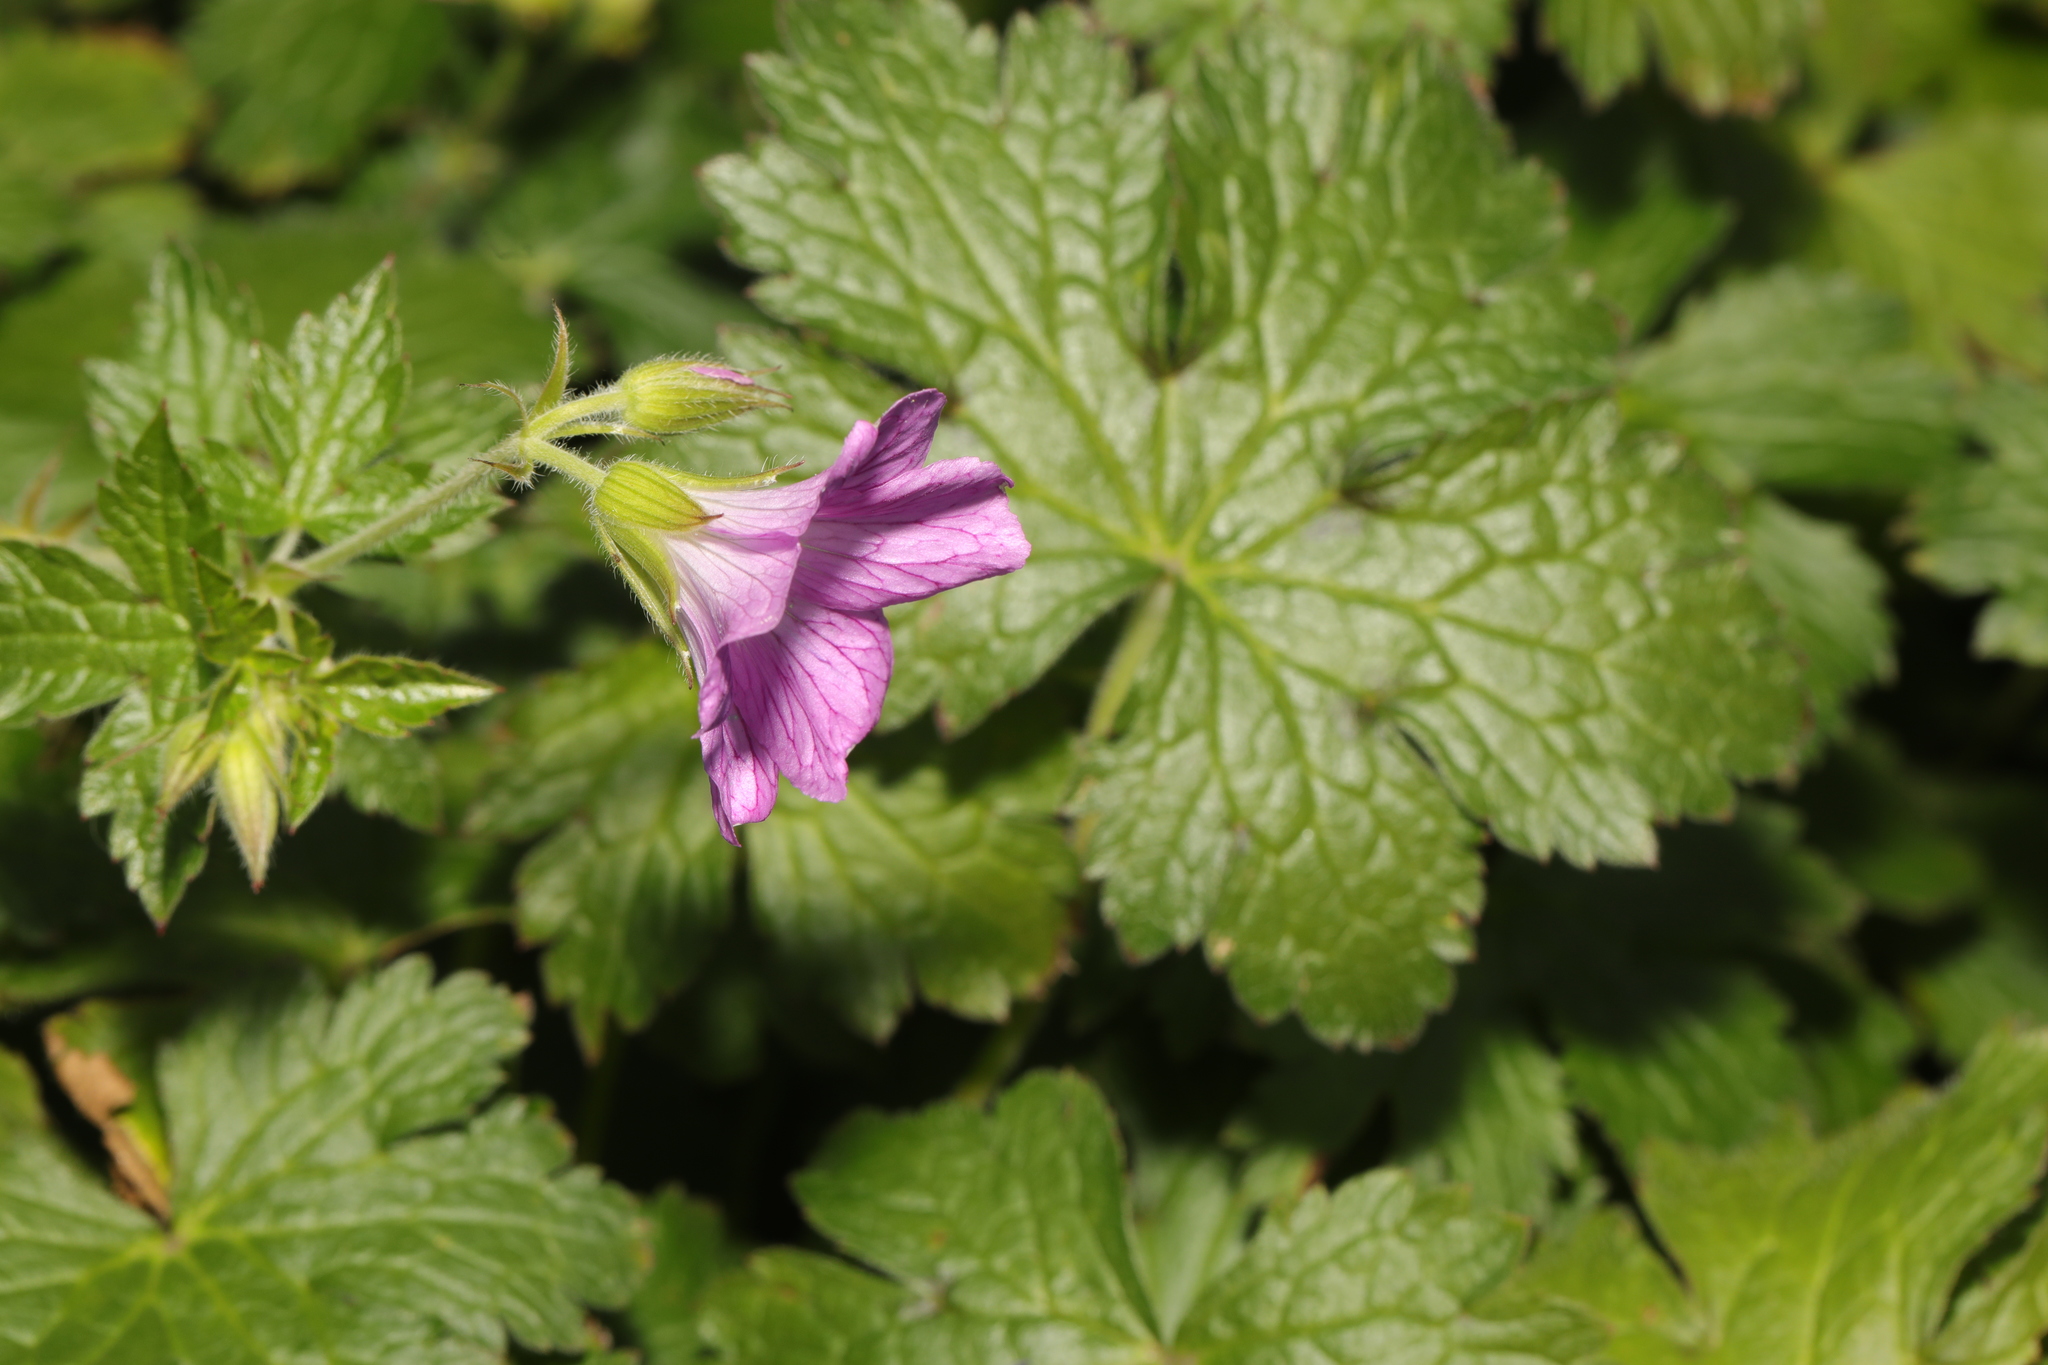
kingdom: Plantae
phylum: Tracheophyta
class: Magnoliopsida
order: Geraniales
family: Geraniaceae
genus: Geranium
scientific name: Geranium oxonianum
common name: Druce's crane's-bill
